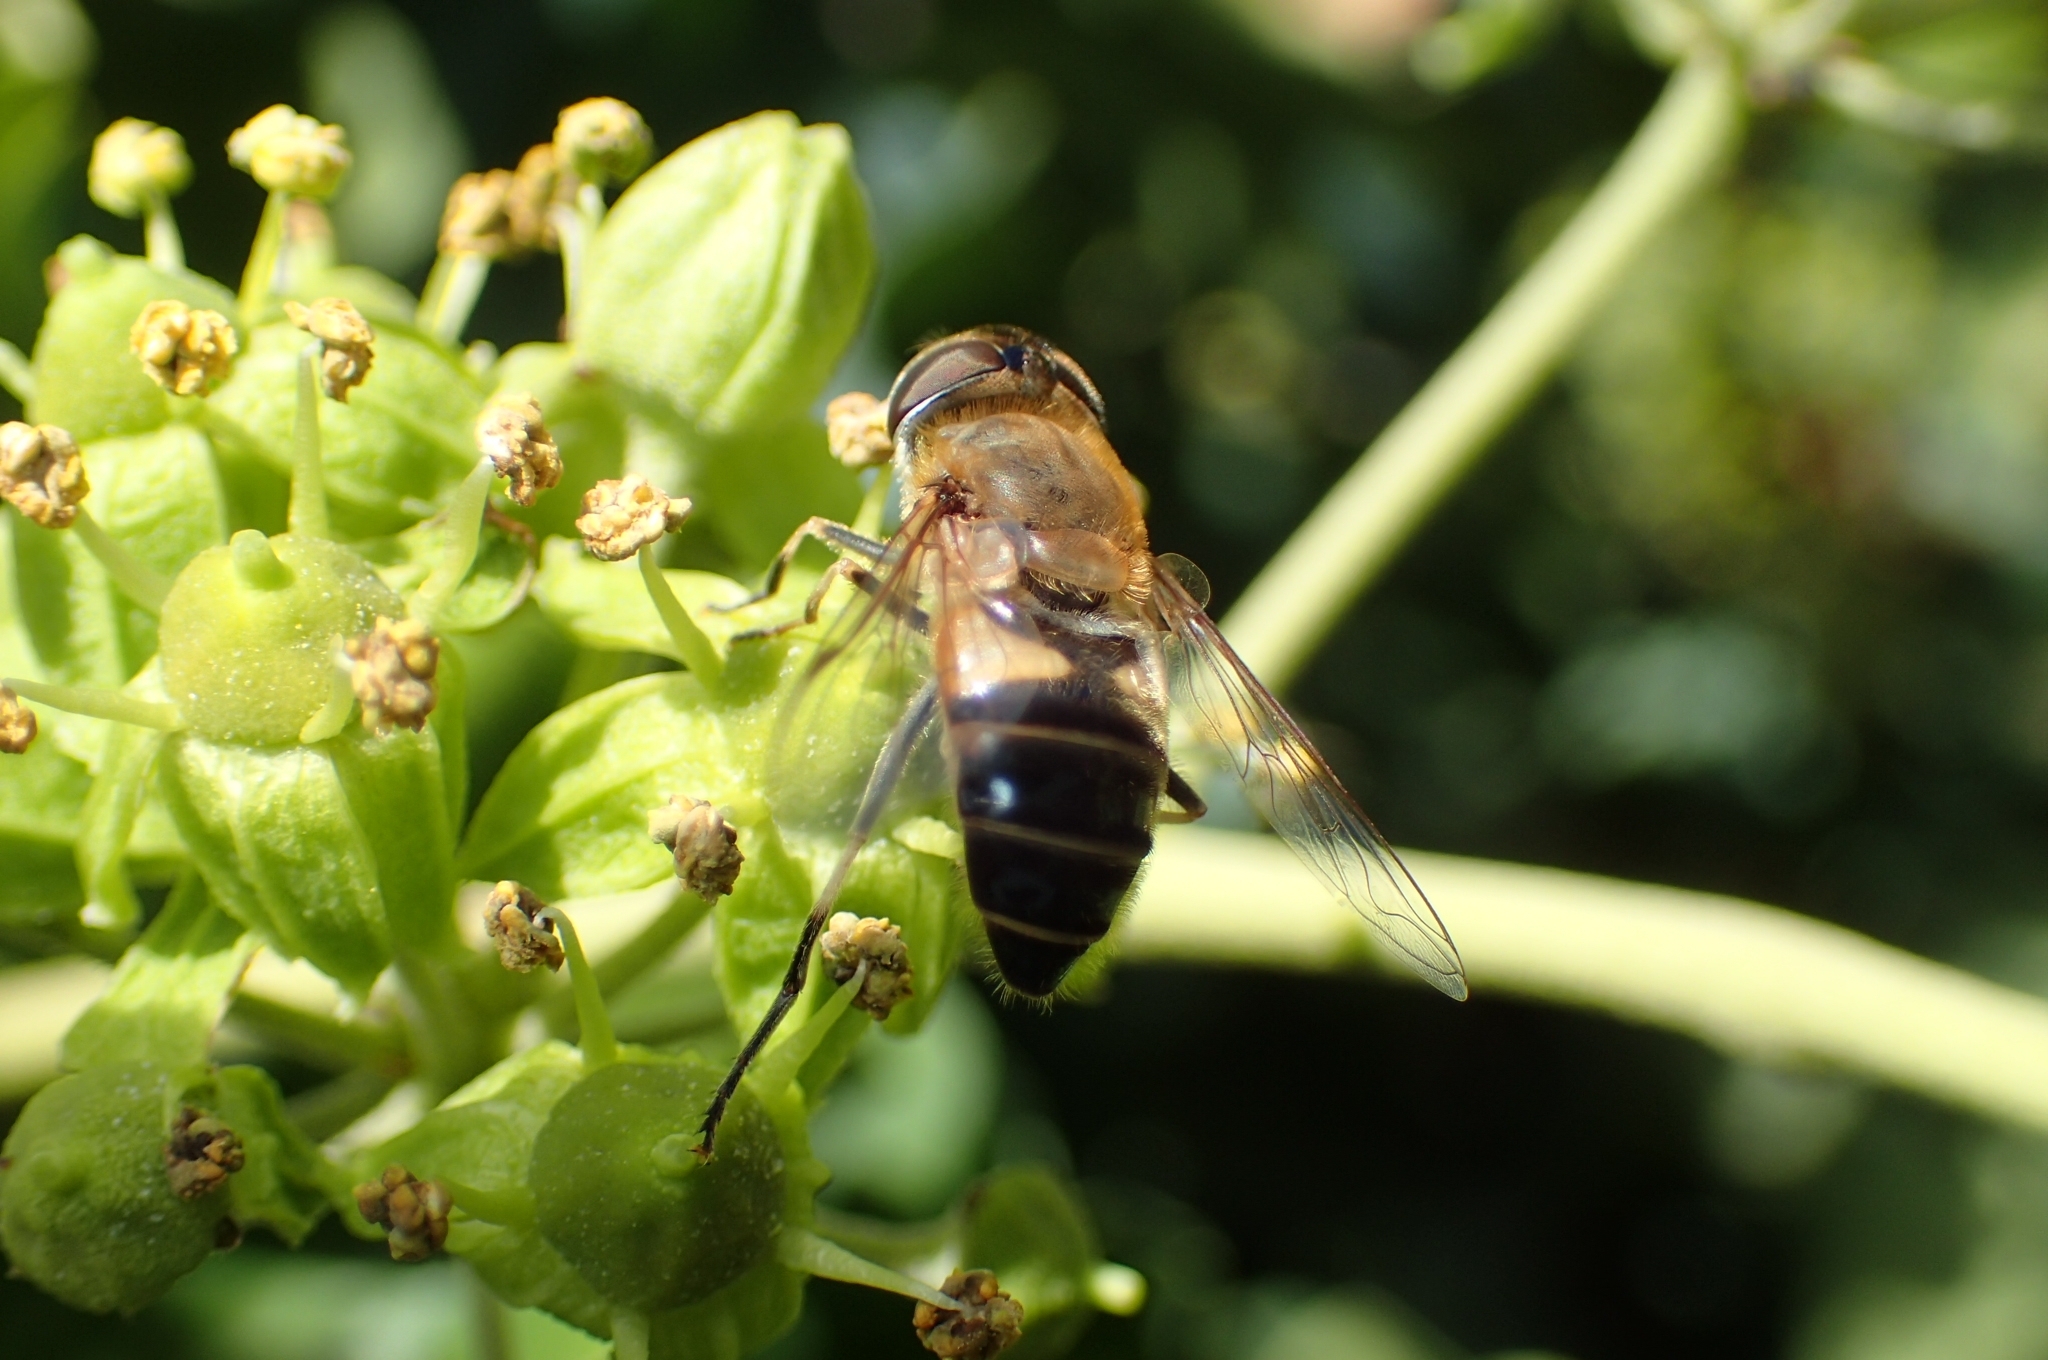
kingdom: Animalia
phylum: Arthropoda
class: Insecta
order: Diptera
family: Syrphidae
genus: Eristalis
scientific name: Eristalis pertinax
